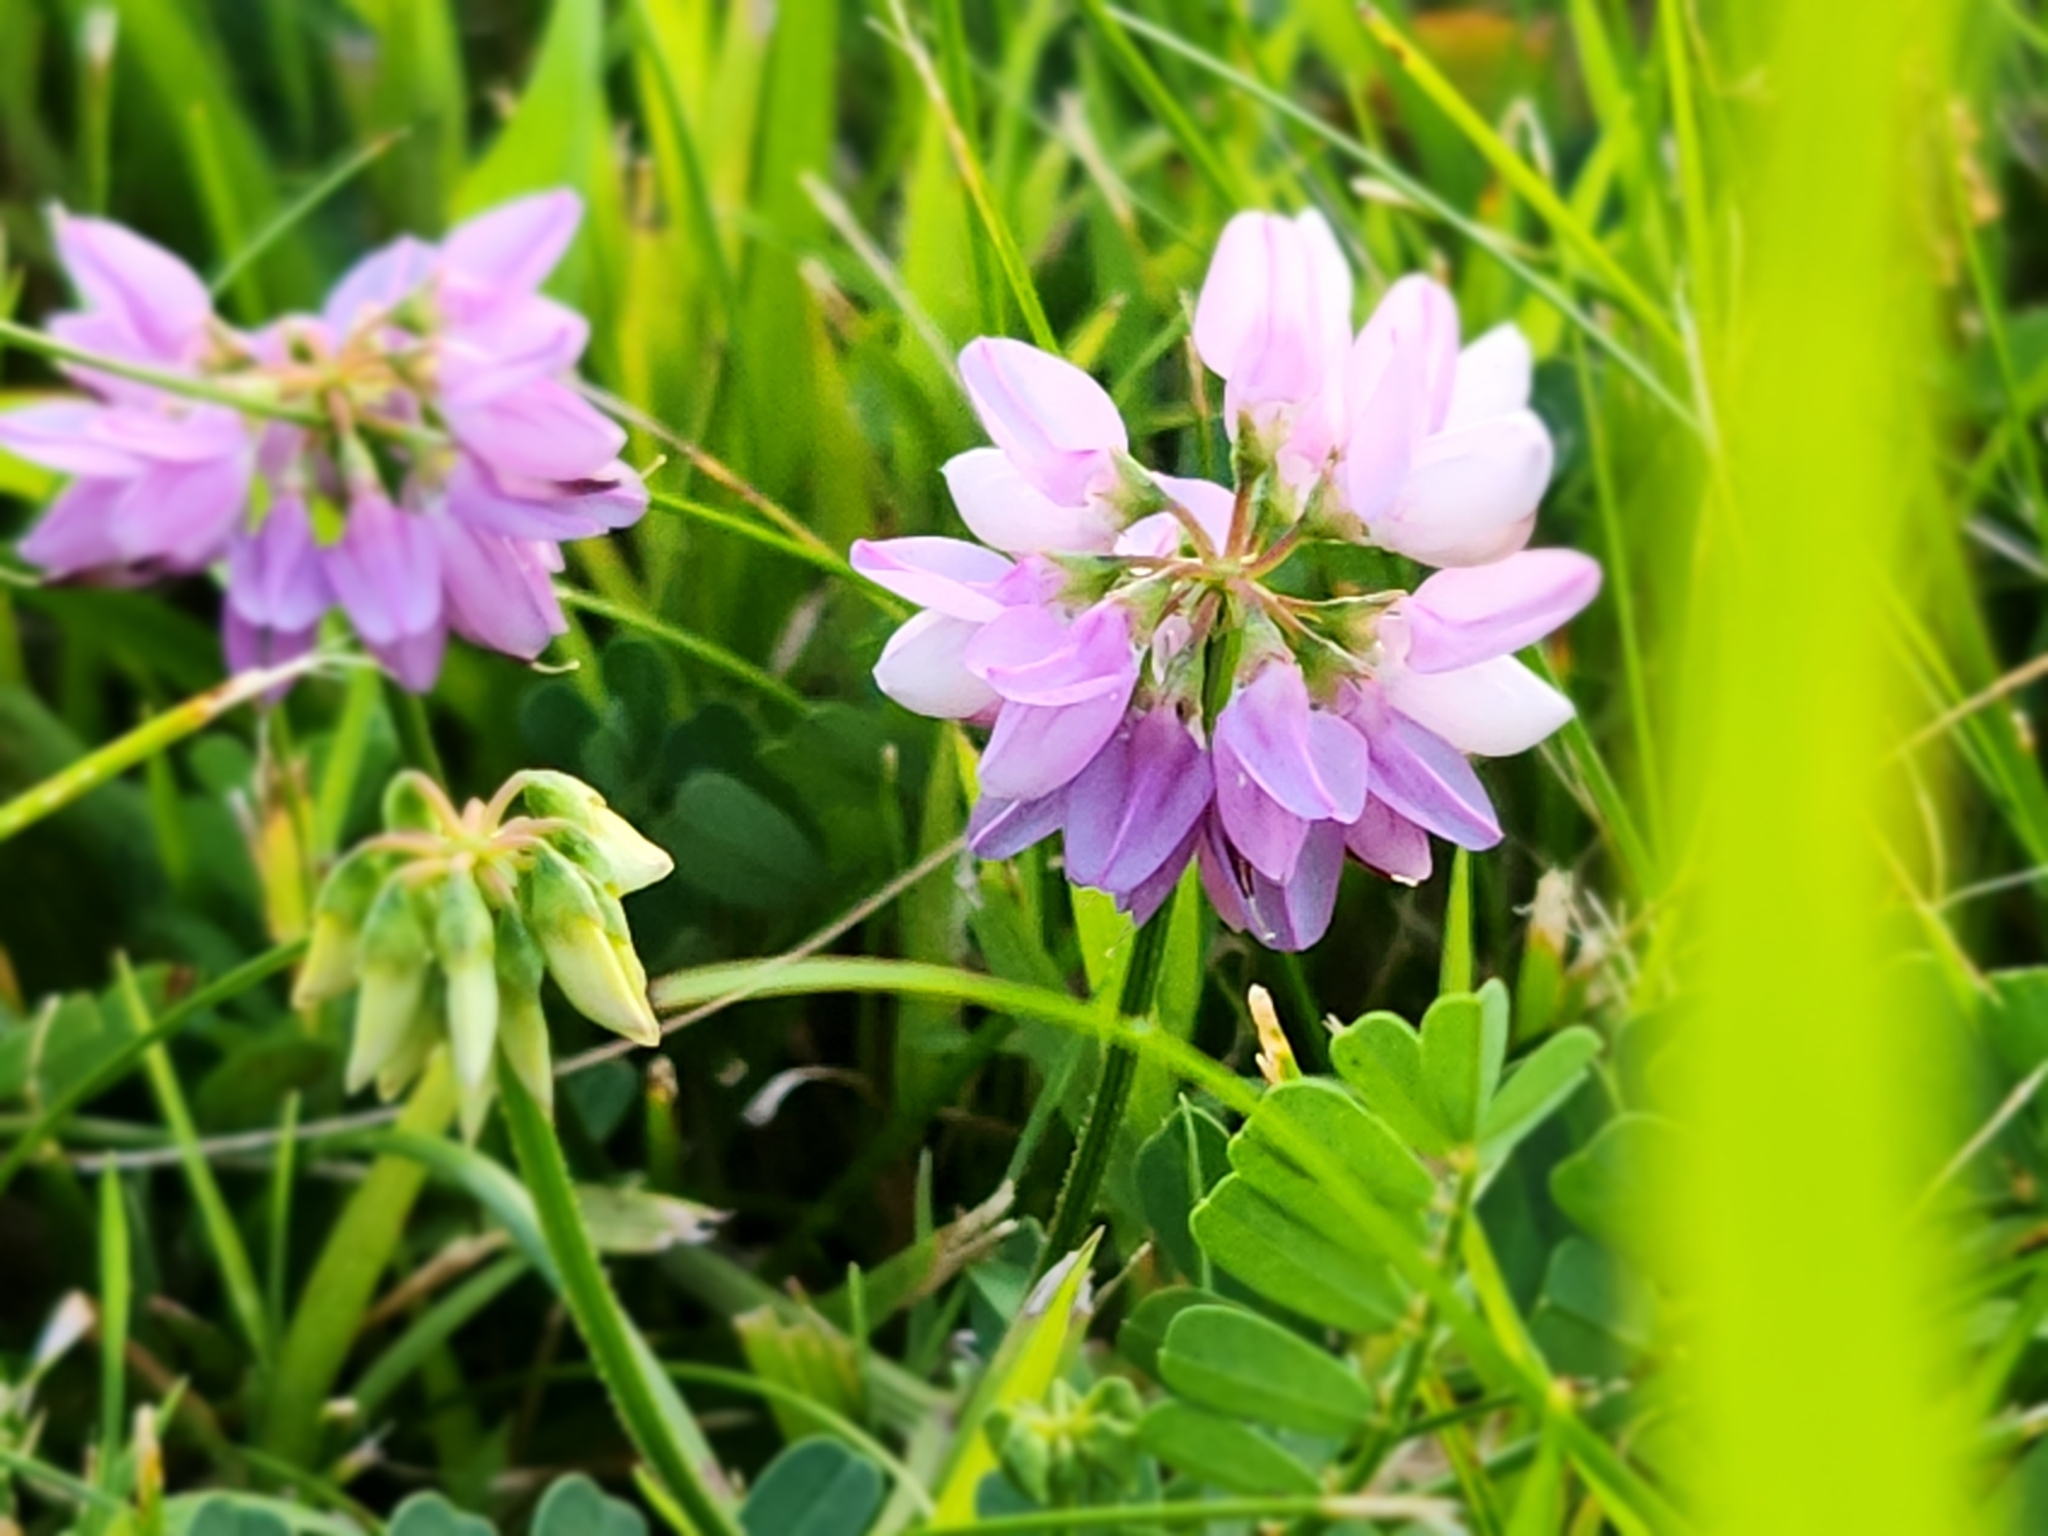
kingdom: Plantae
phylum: Tracheophyta
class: Magnoliopsida
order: Fabales
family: Fabaceae
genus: Coronilla
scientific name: Coronilla varia
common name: Crownvetch
